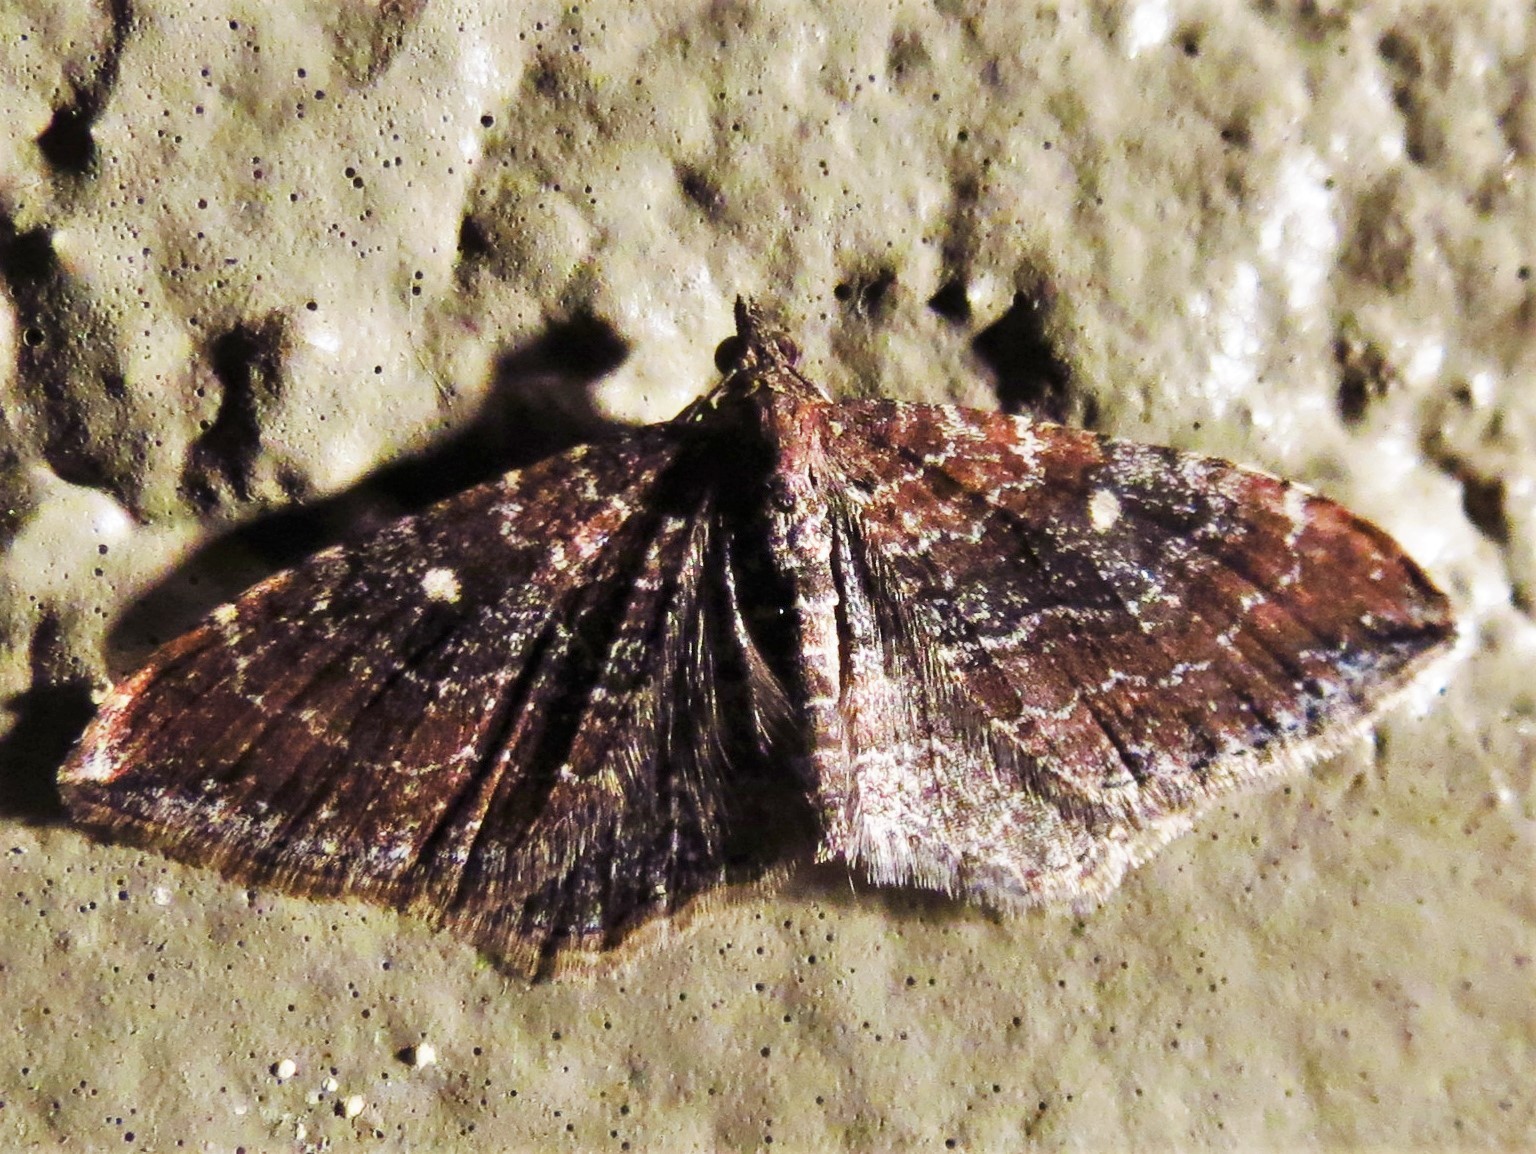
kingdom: Animalia
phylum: Arthropoda
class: Insecta
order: Lepidoptera
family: Geometridae
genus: Orthonama
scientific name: Orthonama obstipata
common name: The gem
